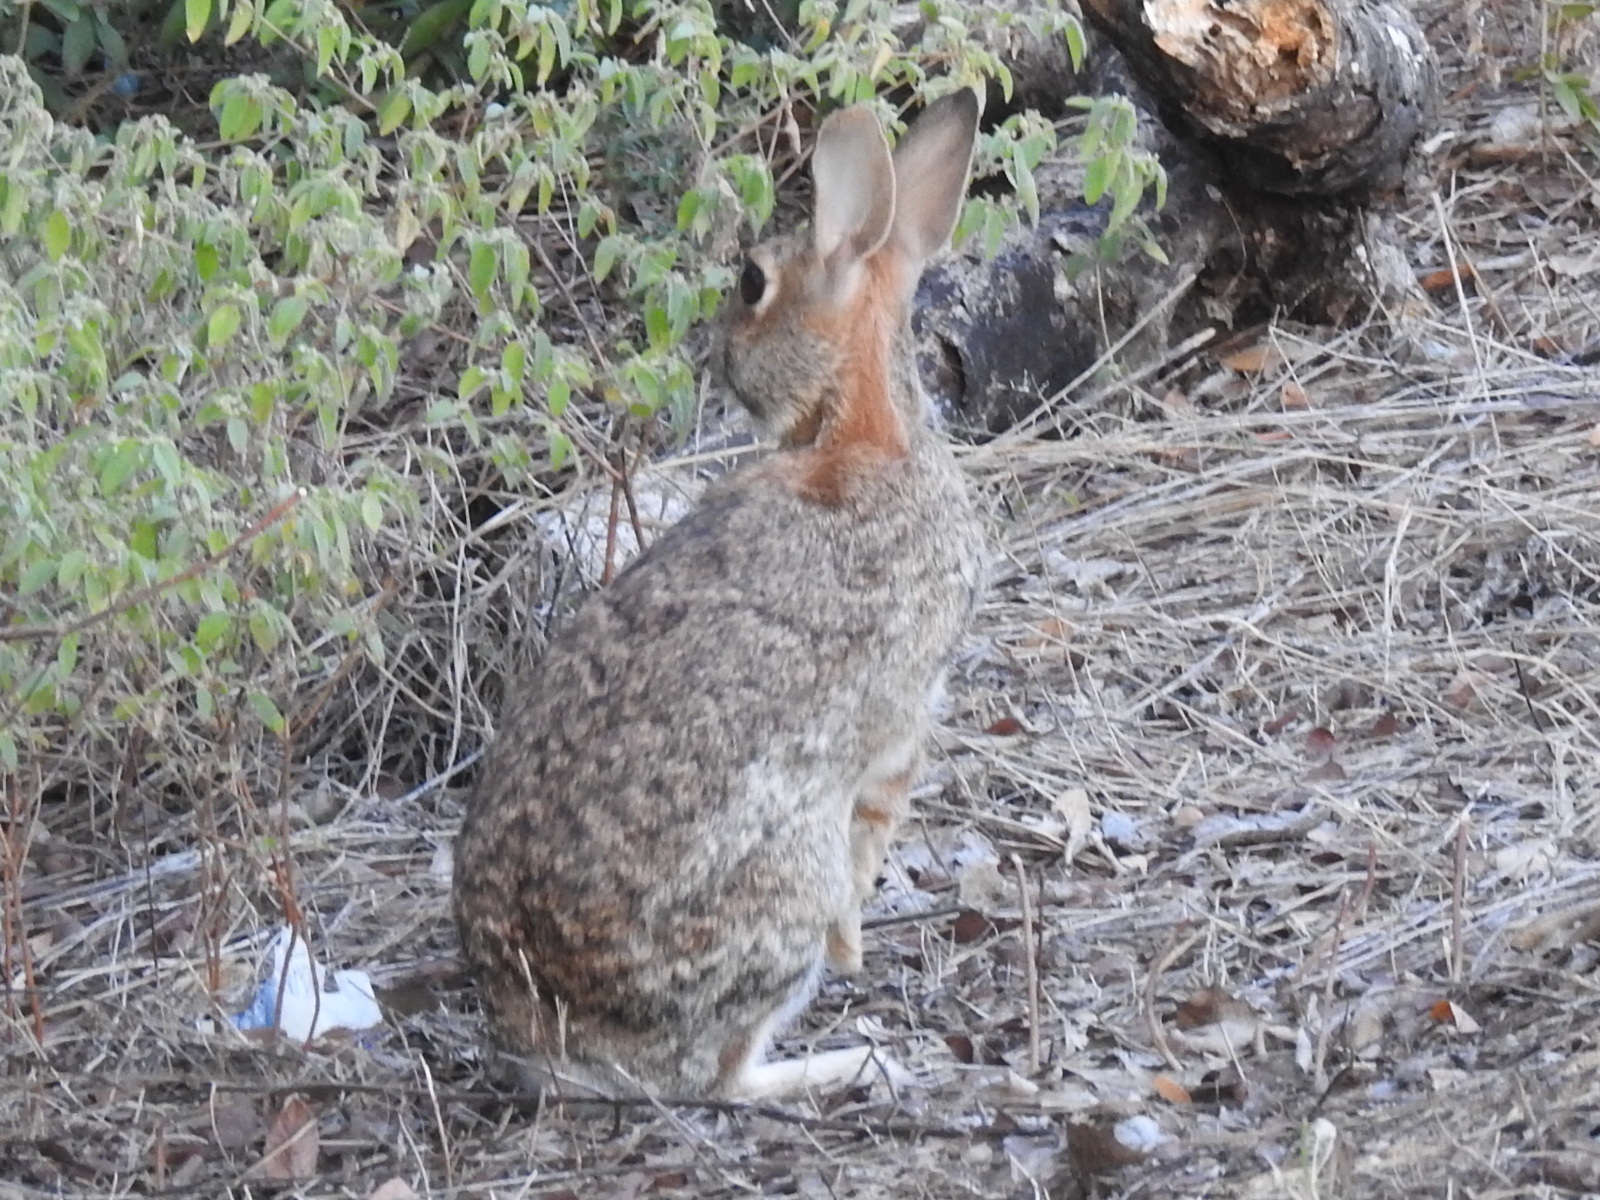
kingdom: Animalia
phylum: Chordata
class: Mammalia
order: Lagomorpha
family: Leporidae
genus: Sylvilagus
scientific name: Sylvilagus floridanus
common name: Eastern cottontail
